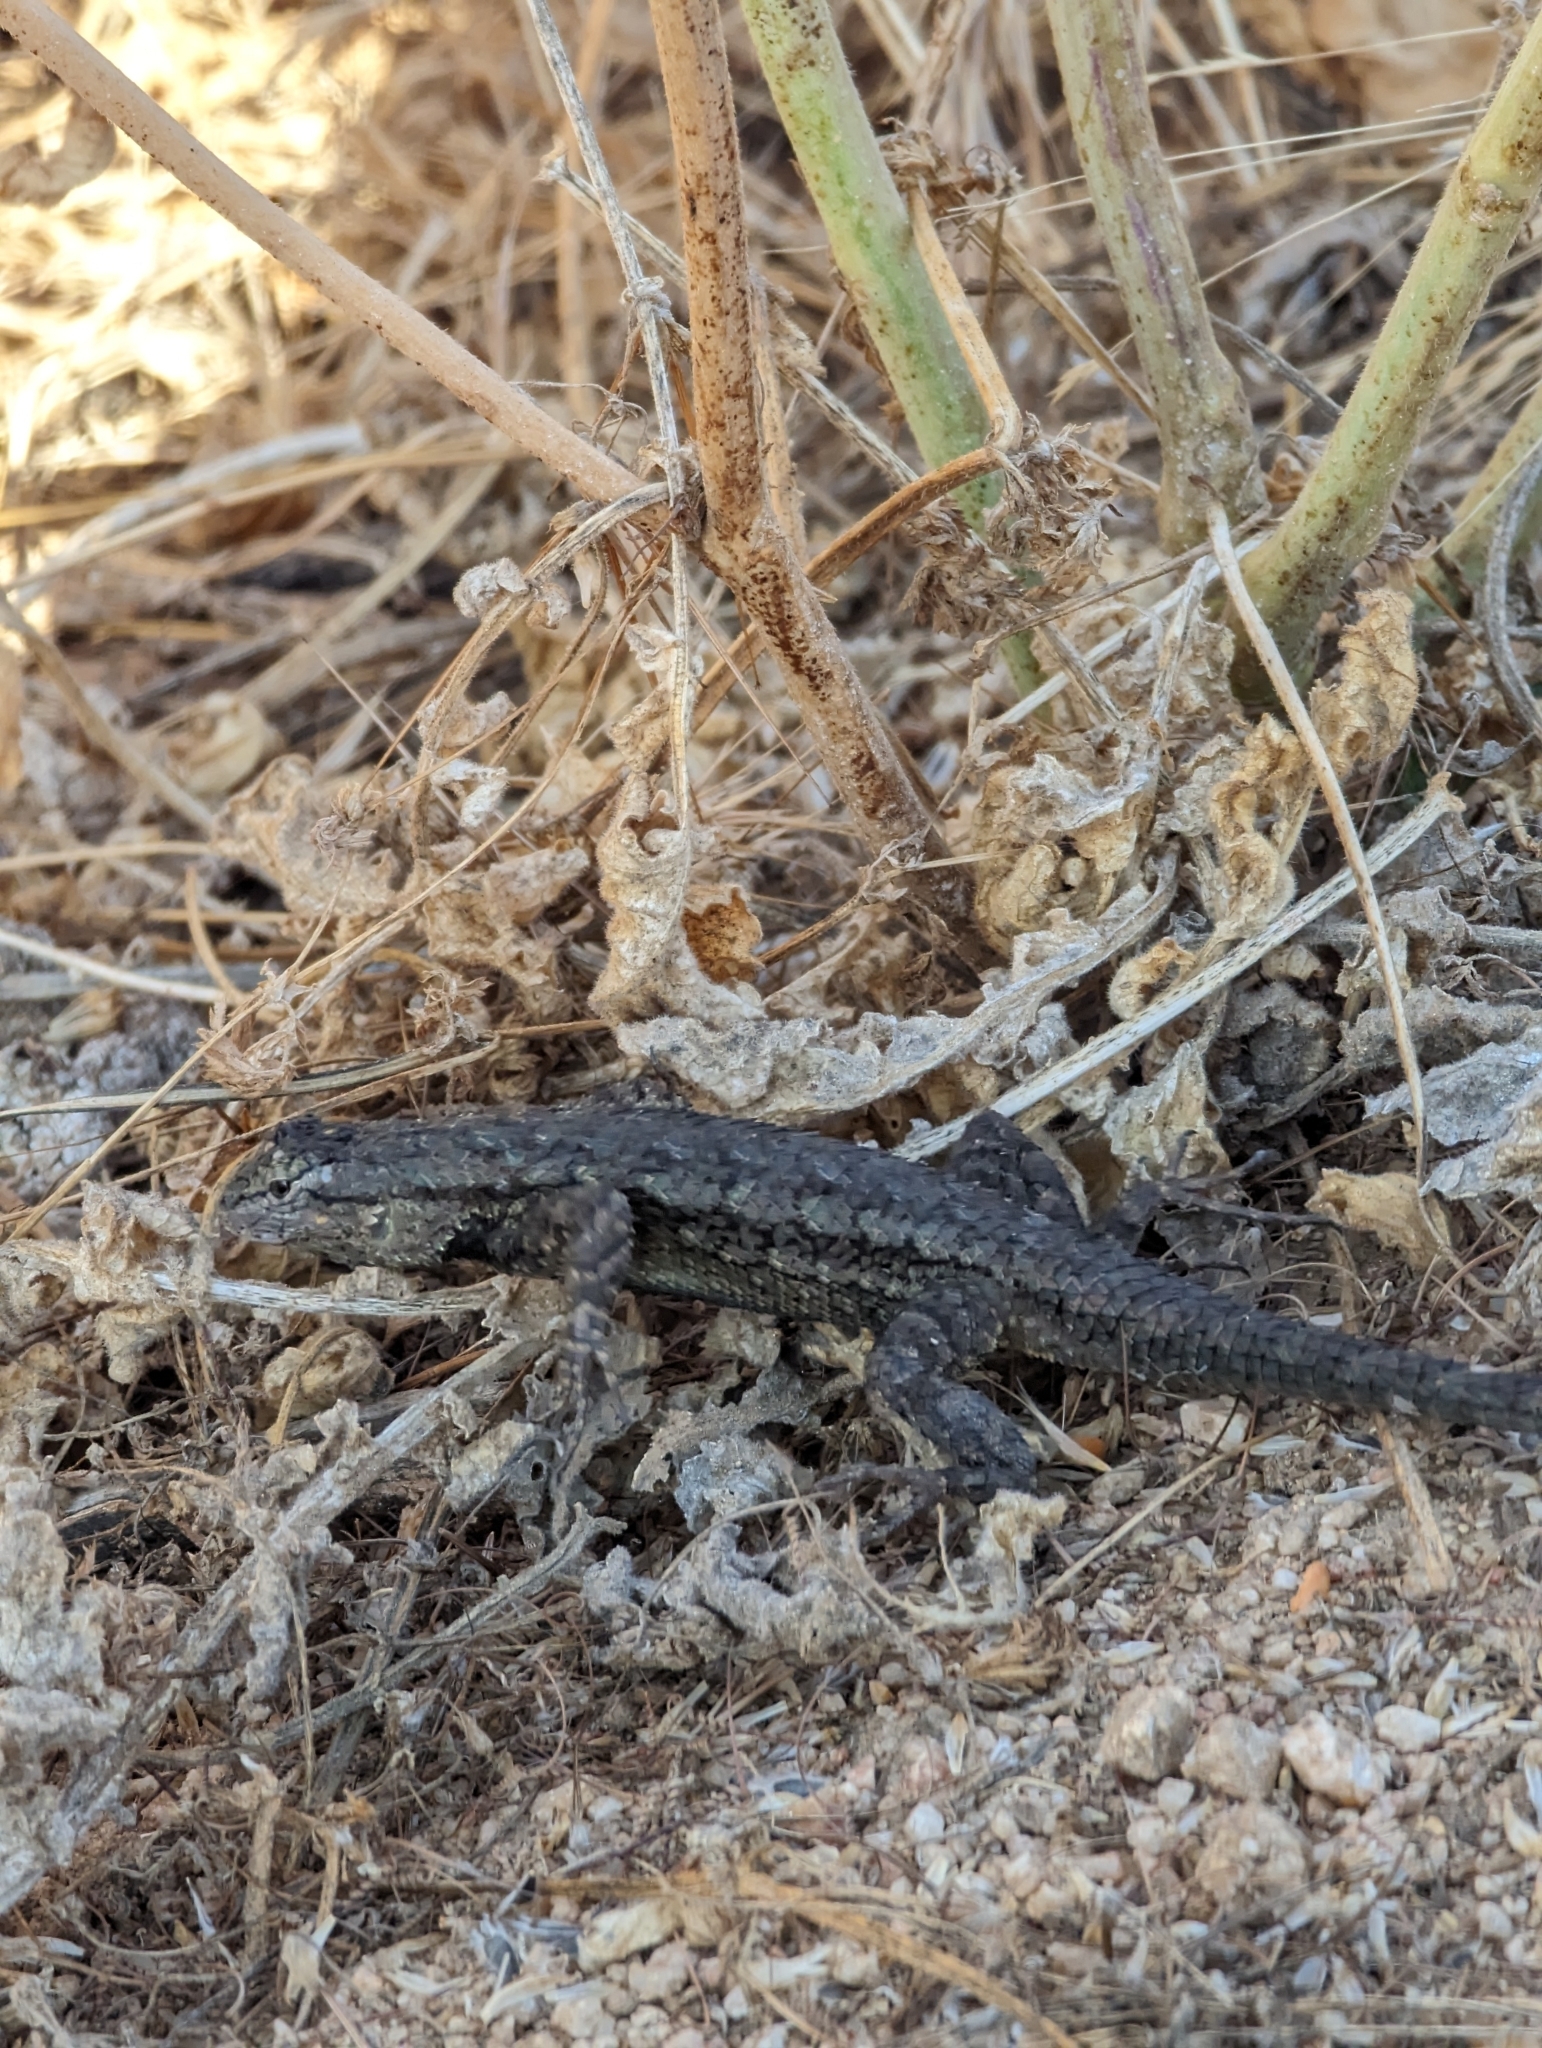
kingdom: Animalia
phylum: Chordata
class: Squamata
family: Phrynosomatidae
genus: Sceloporus
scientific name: Sceloporus occidentalis
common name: Western fence lizard
